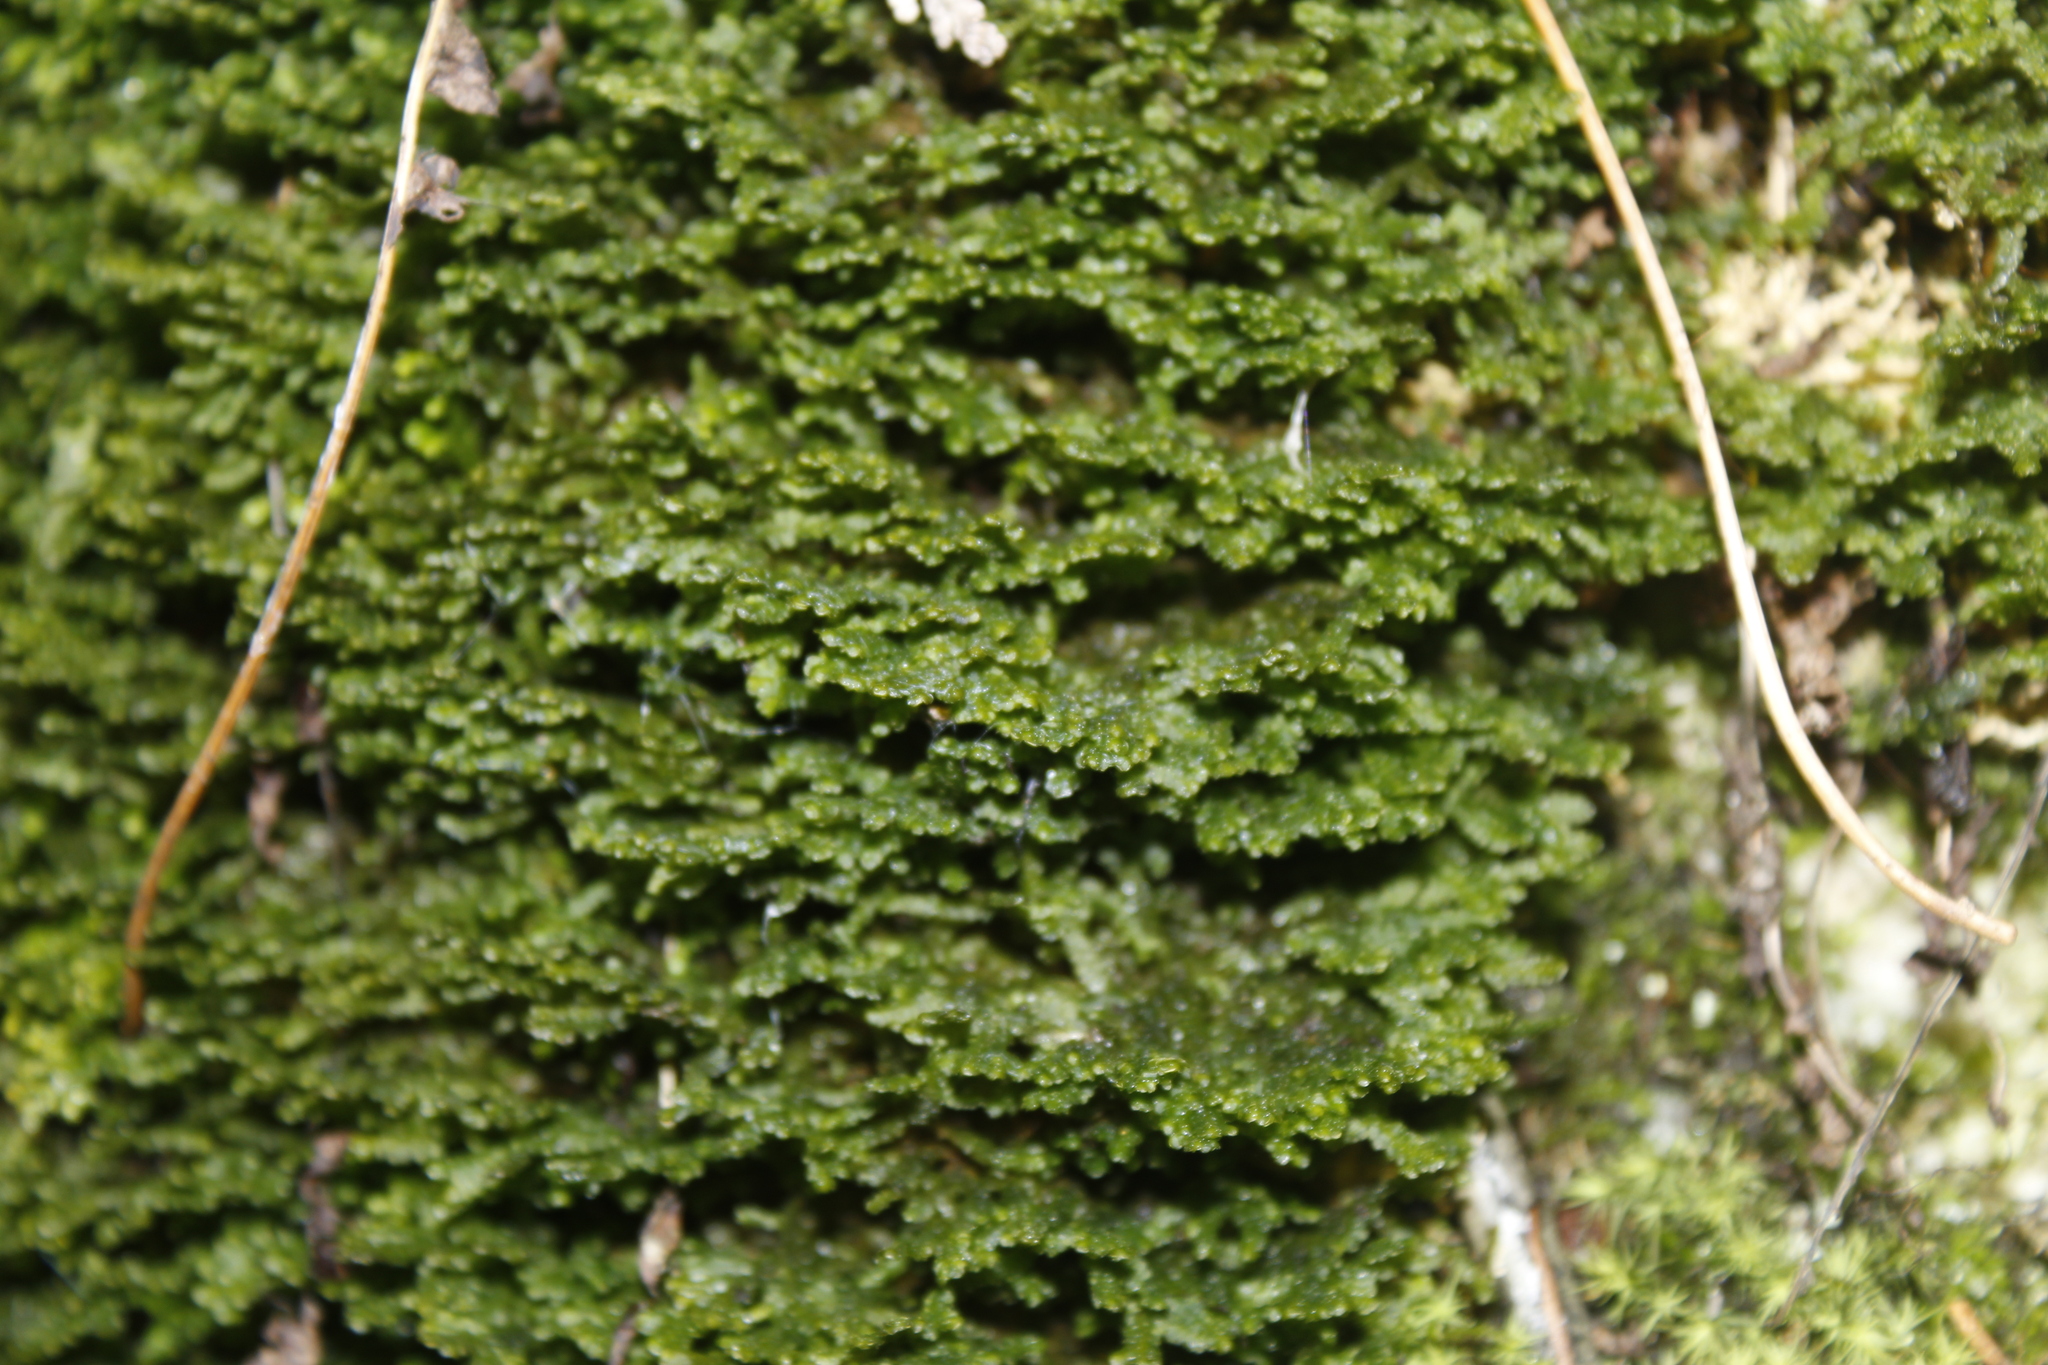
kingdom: Plantae
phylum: Marchantiophyta
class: Jungermanniopsida
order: Porellales
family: Porellaceae
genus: Porella
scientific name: Porella platyphylla
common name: Wall scalewort
